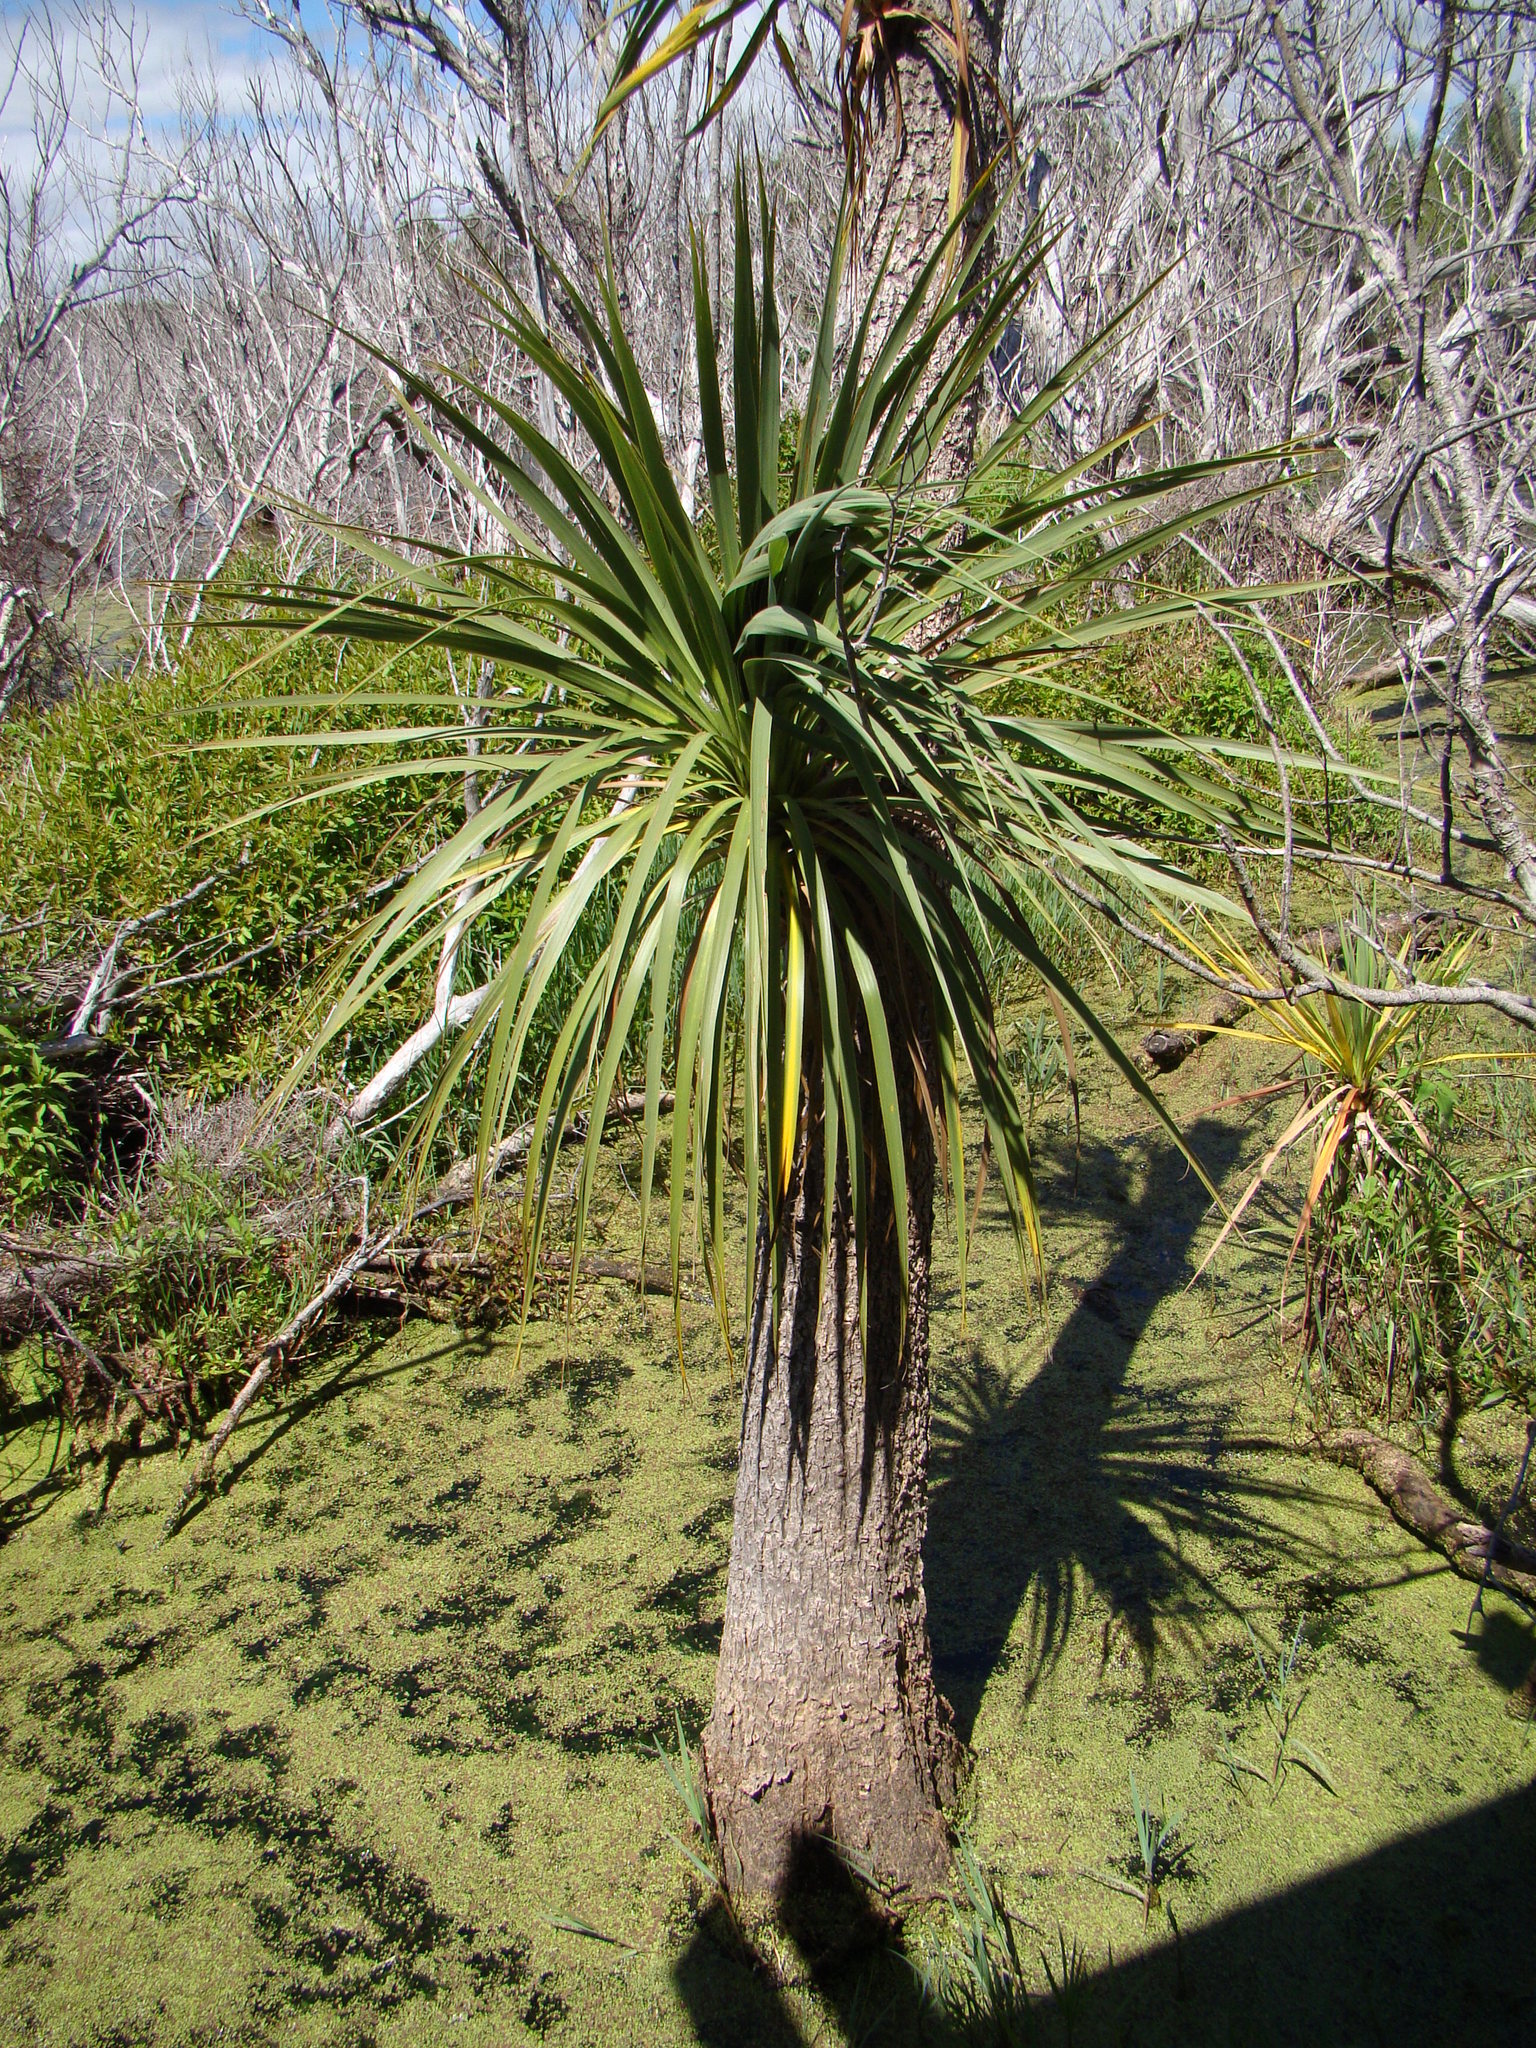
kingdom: Plantae
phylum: Tracheophyta
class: Liliopsida
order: Asparagales
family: Asparagaceae
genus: Cordyline
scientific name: Cordyline australis
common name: Cabbage-palm
